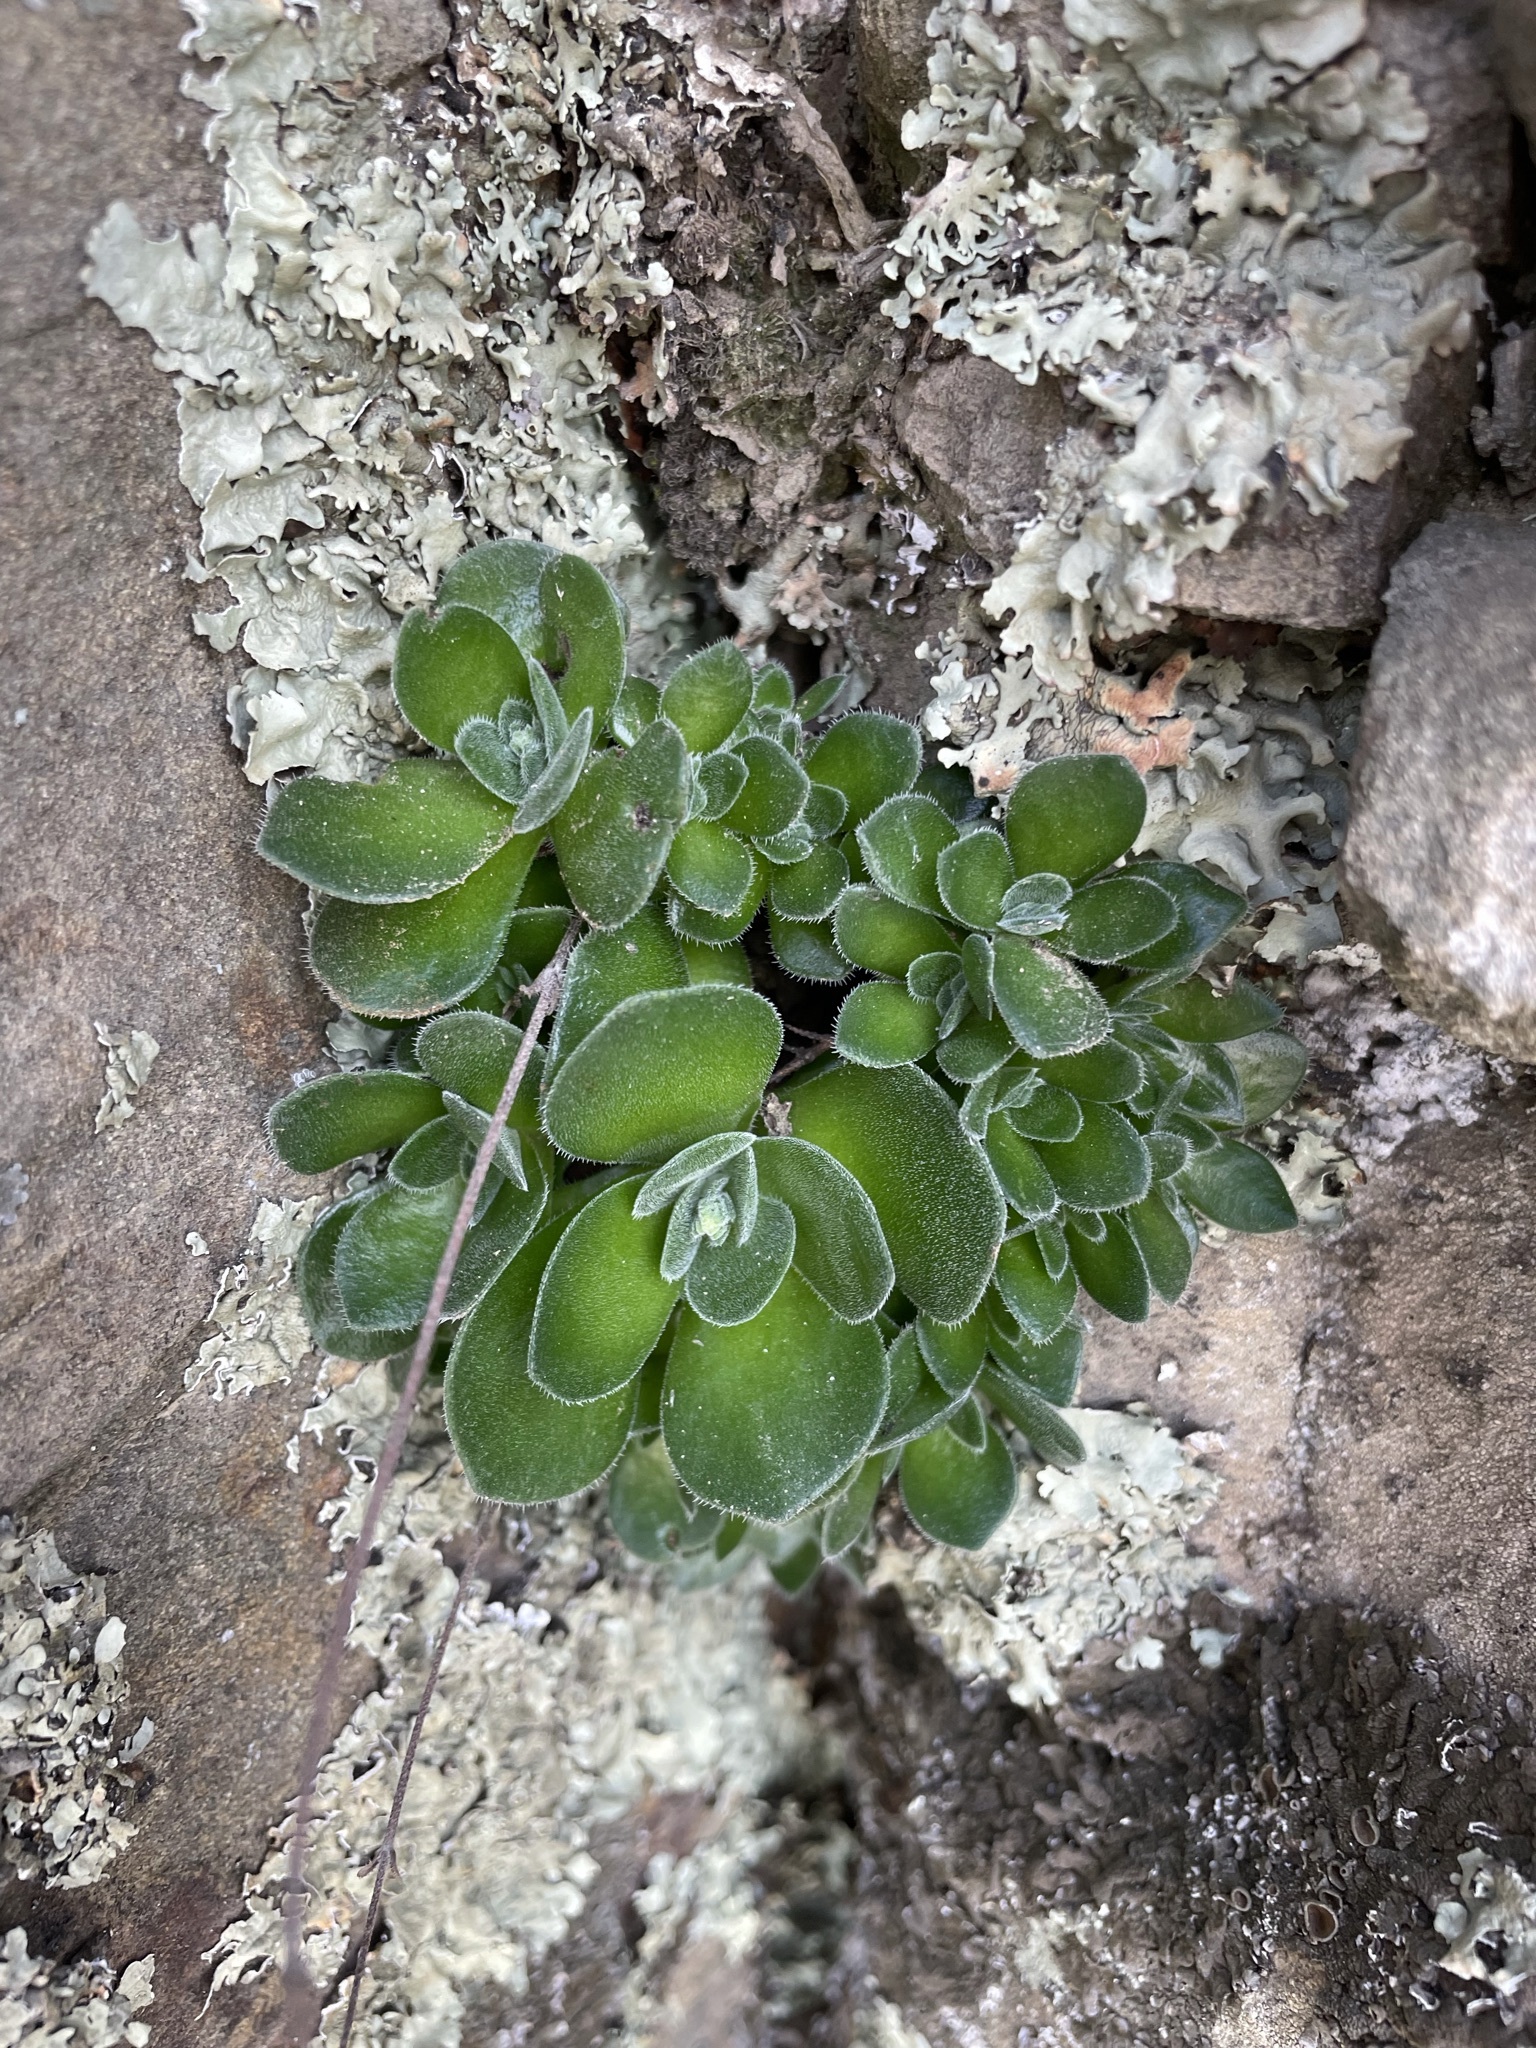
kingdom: Plantae
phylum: Tracheophyta
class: Magnoliopsida
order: Saxifragales
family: Crassulaceae
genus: Crassula
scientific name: Crassula tomentosa
